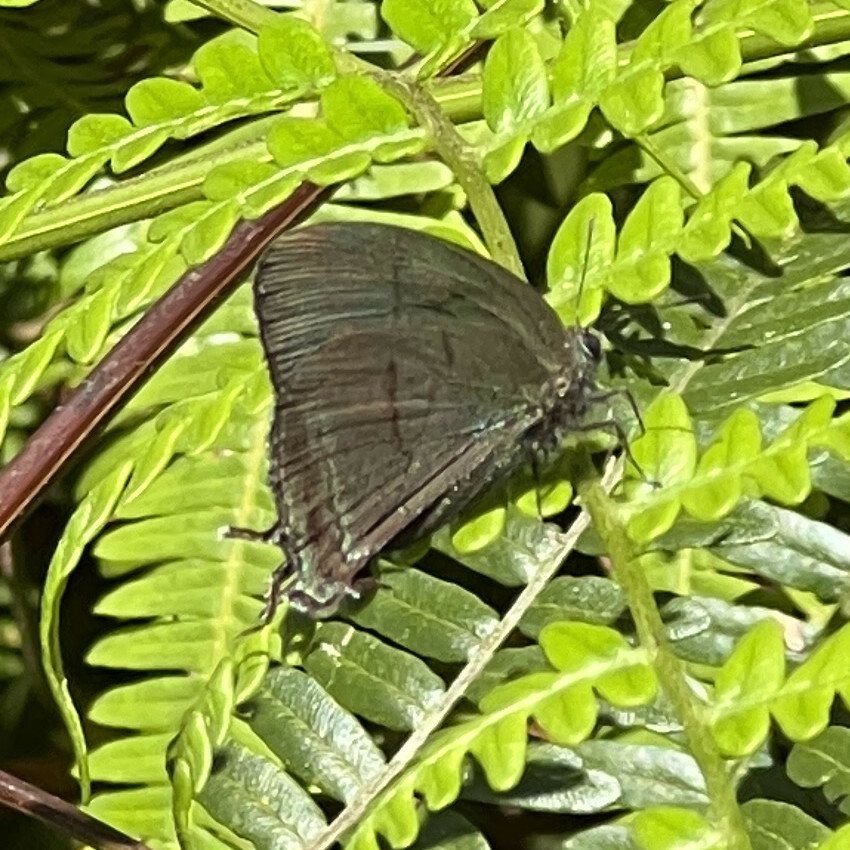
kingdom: Animalia
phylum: Arthropoda
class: Insecta
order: Lepidoptera
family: Lycaenidae
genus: Theritas
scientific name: Theritas mavors
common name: Deep-green hairstreak
